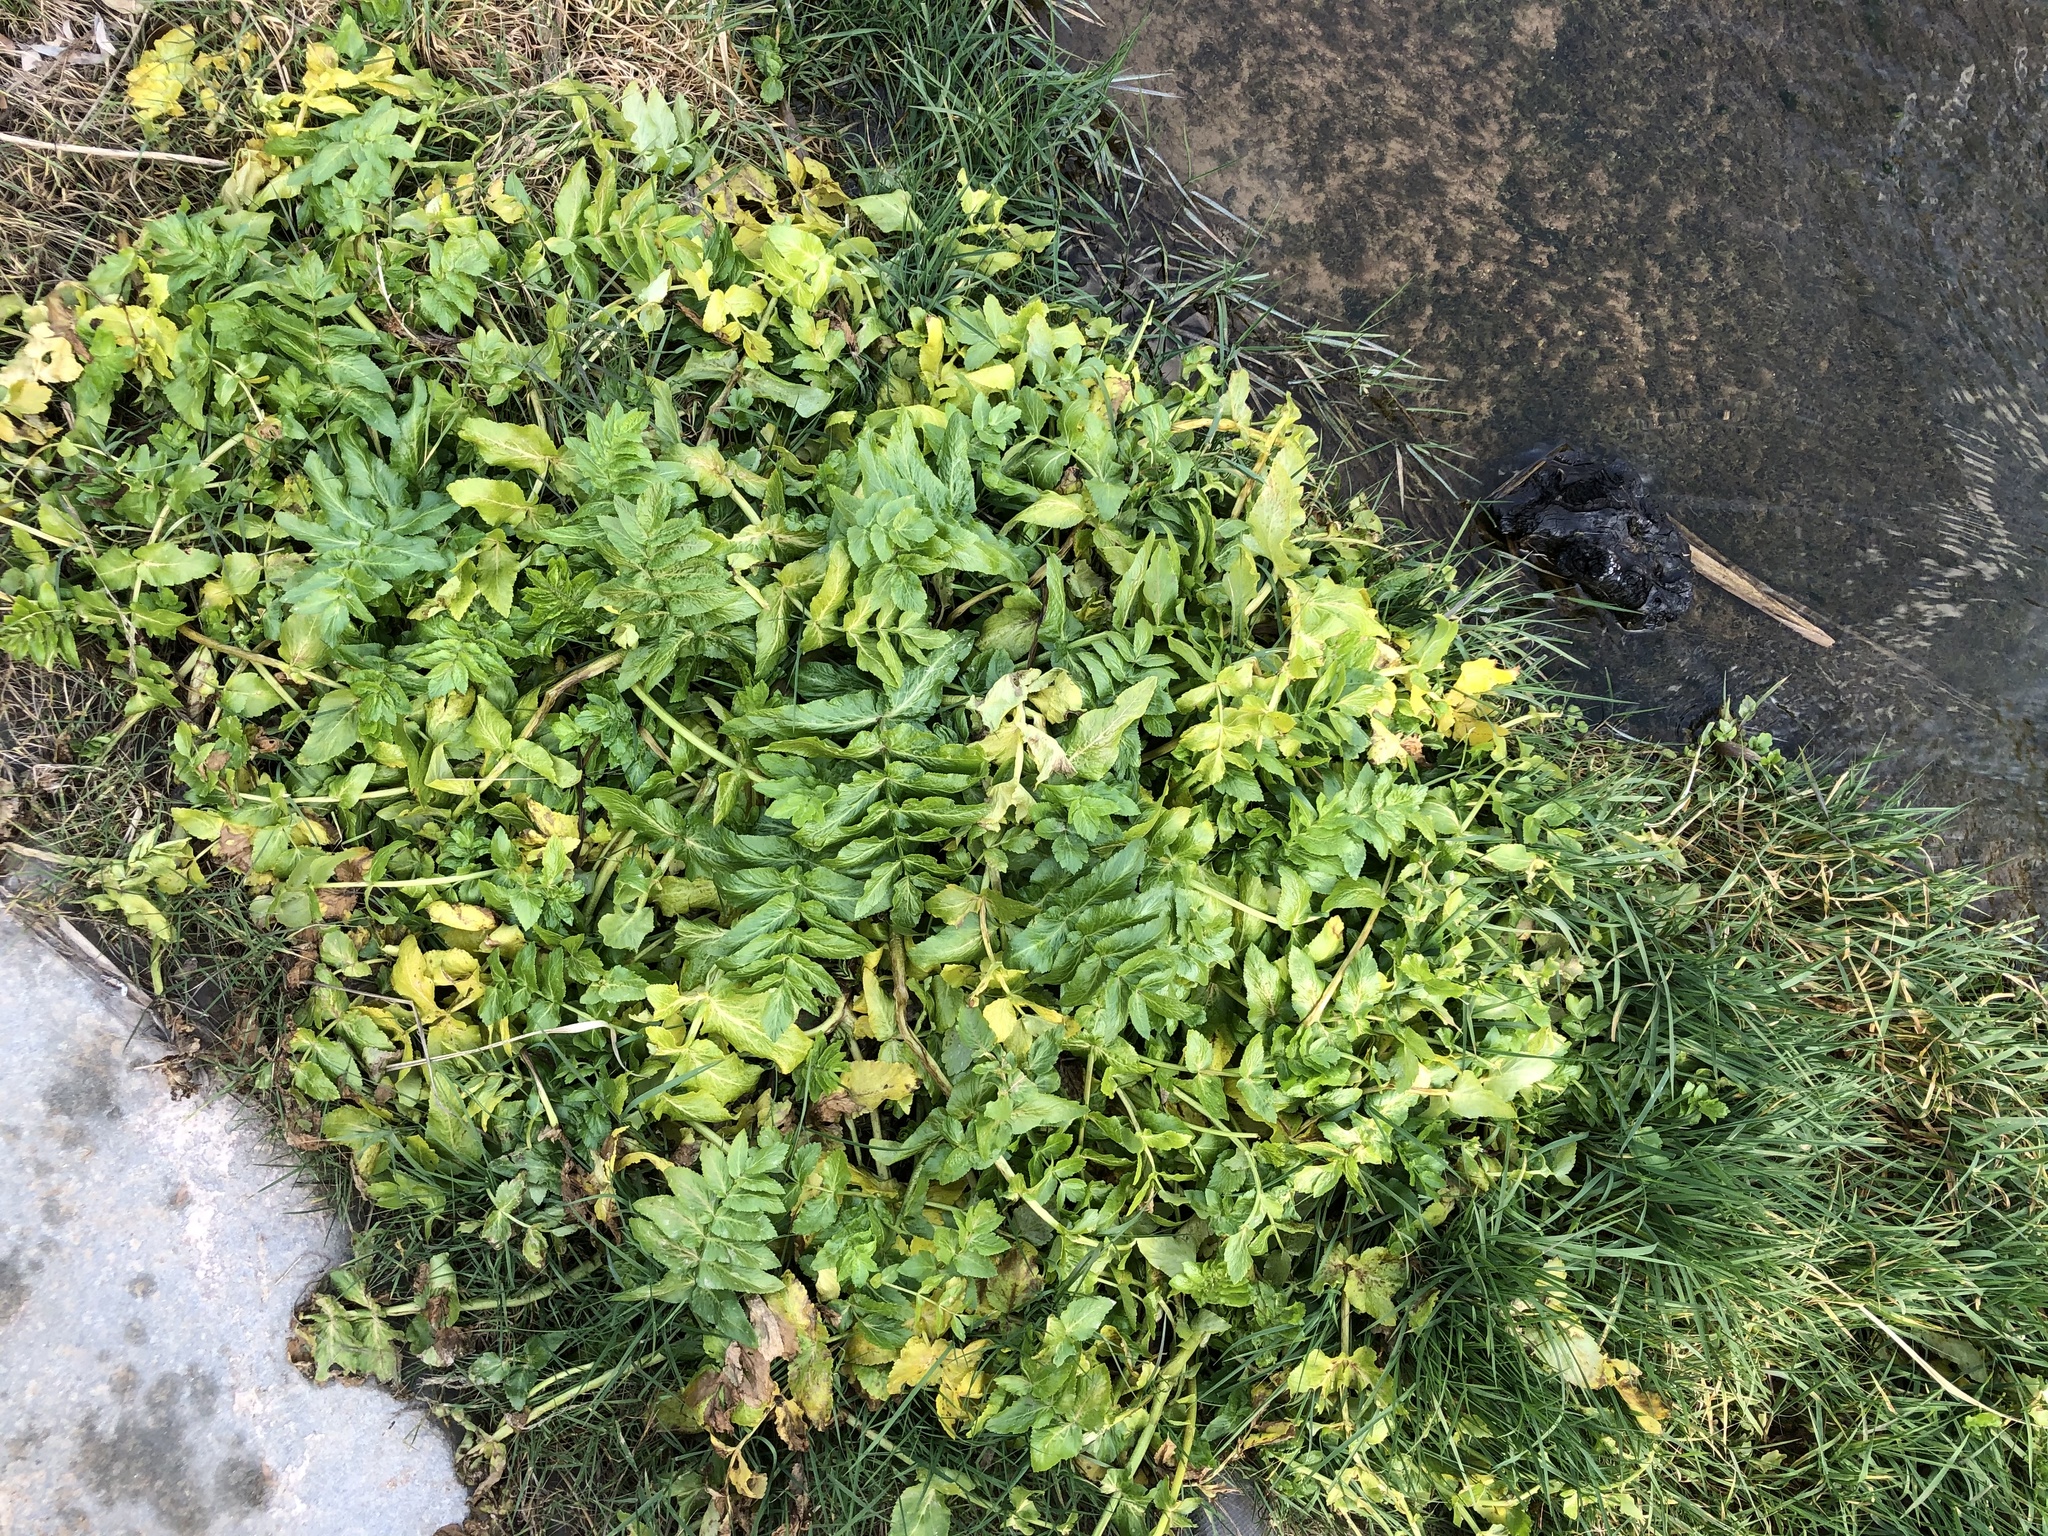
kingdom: Plantae
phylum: Tracheophyta
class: Magnoliopsida
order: Apiales
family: Apiaceae
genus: Helosciadium
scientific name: Helosciadium nodiflorum
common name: Fool's-watercress
